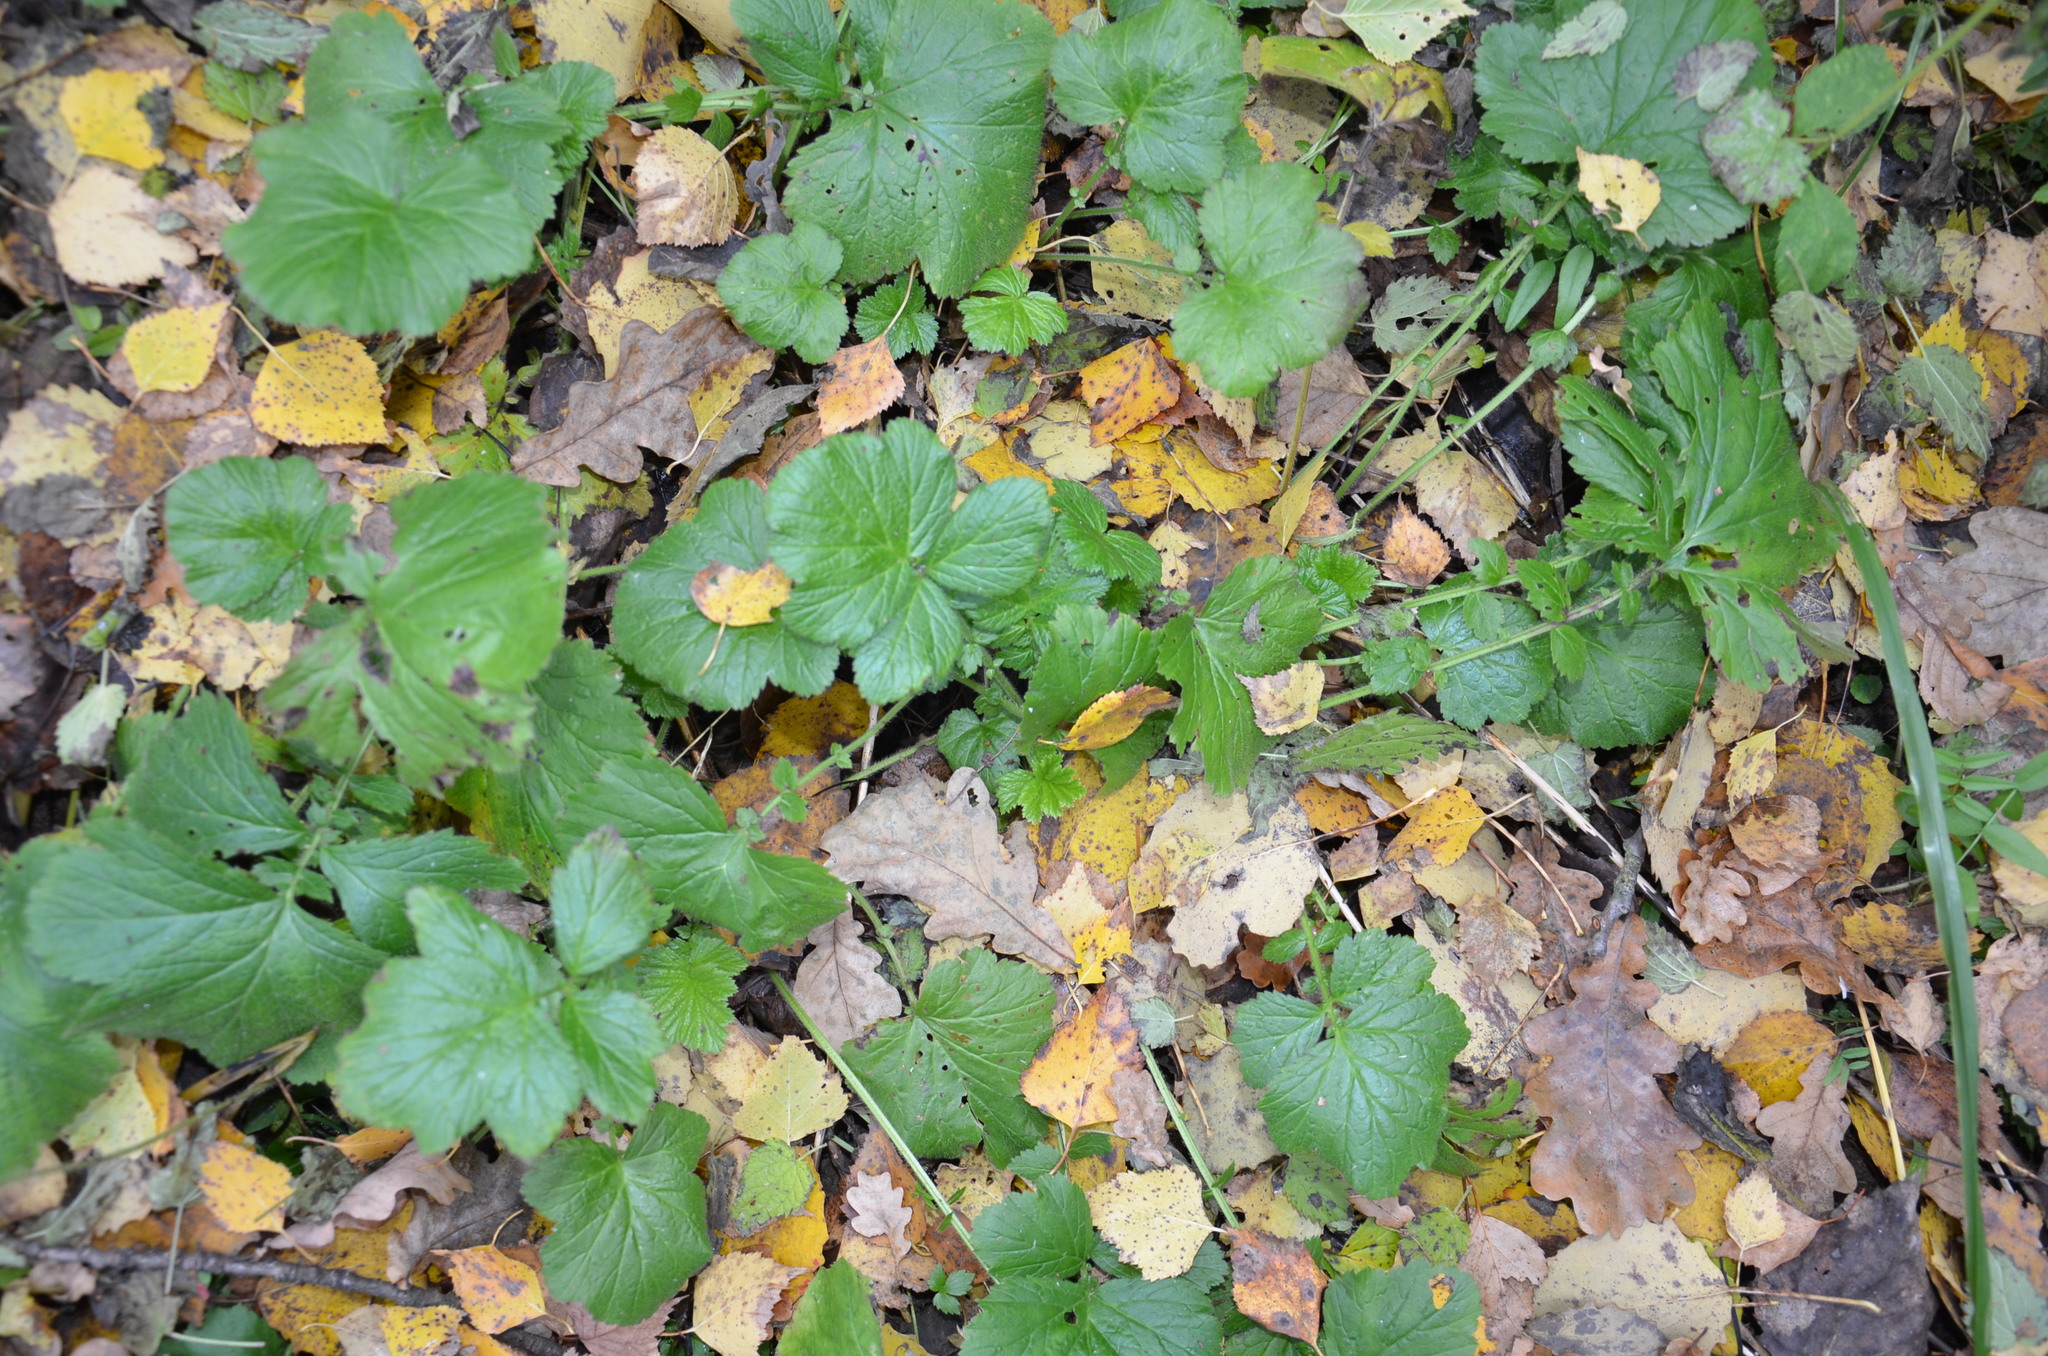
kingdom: Plantae
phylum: Tracheophyta
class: Magnoliopsida
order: Rosales
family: Rosaceae
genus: Geum
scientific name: Geum urbanum
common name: Wood avens
